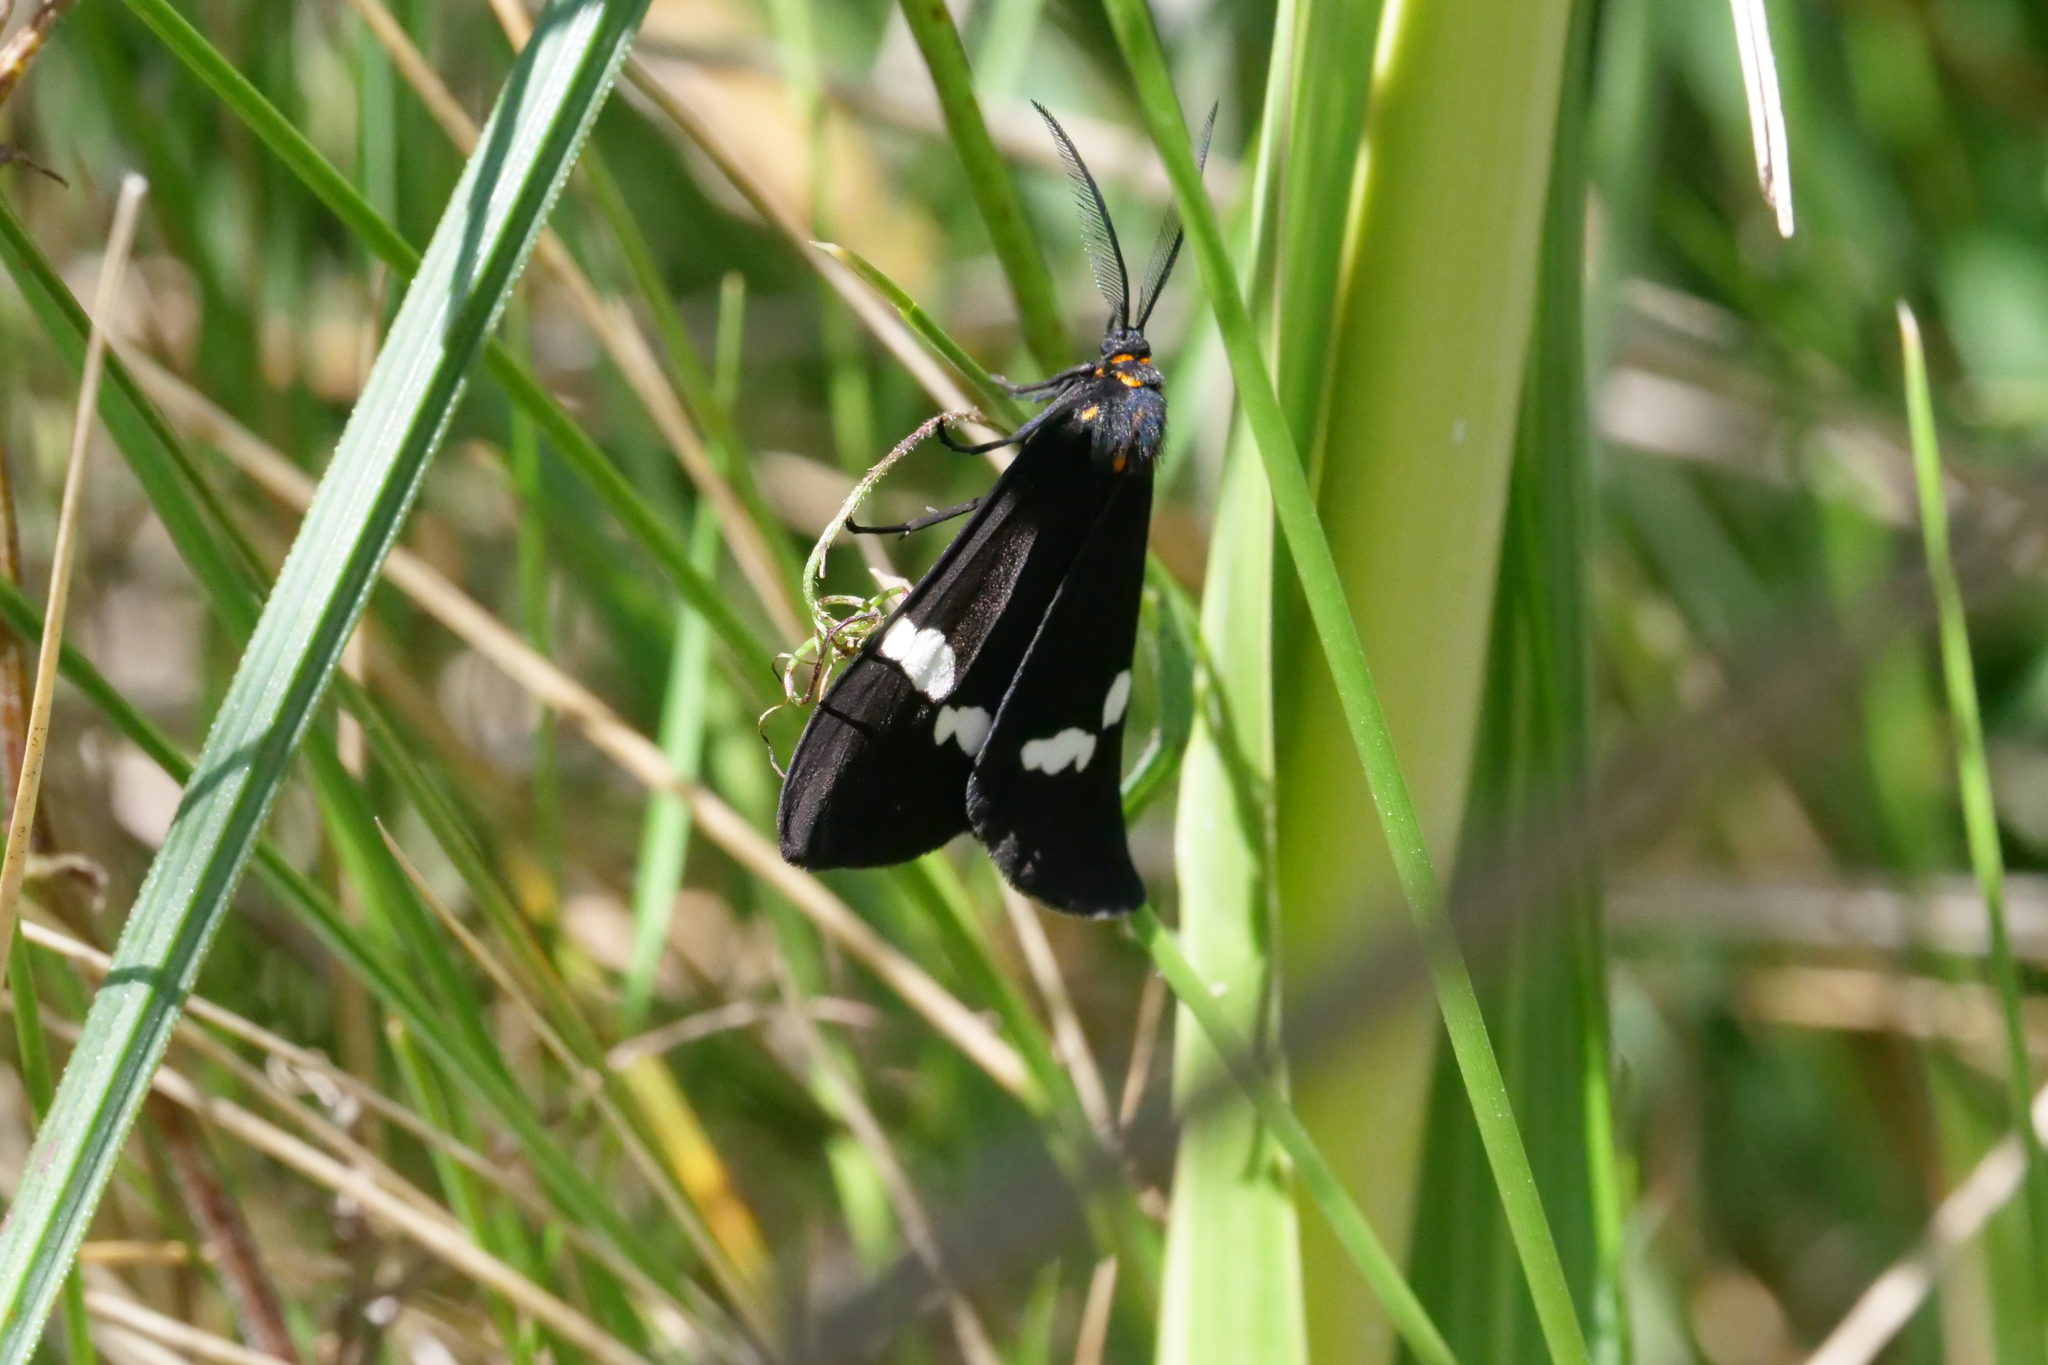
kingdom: Animalia
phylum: Arthropoda
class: Insecta
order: Lepidoptera
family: Erebidae
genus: Nyctemera
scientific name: Nyctemera annulatum
